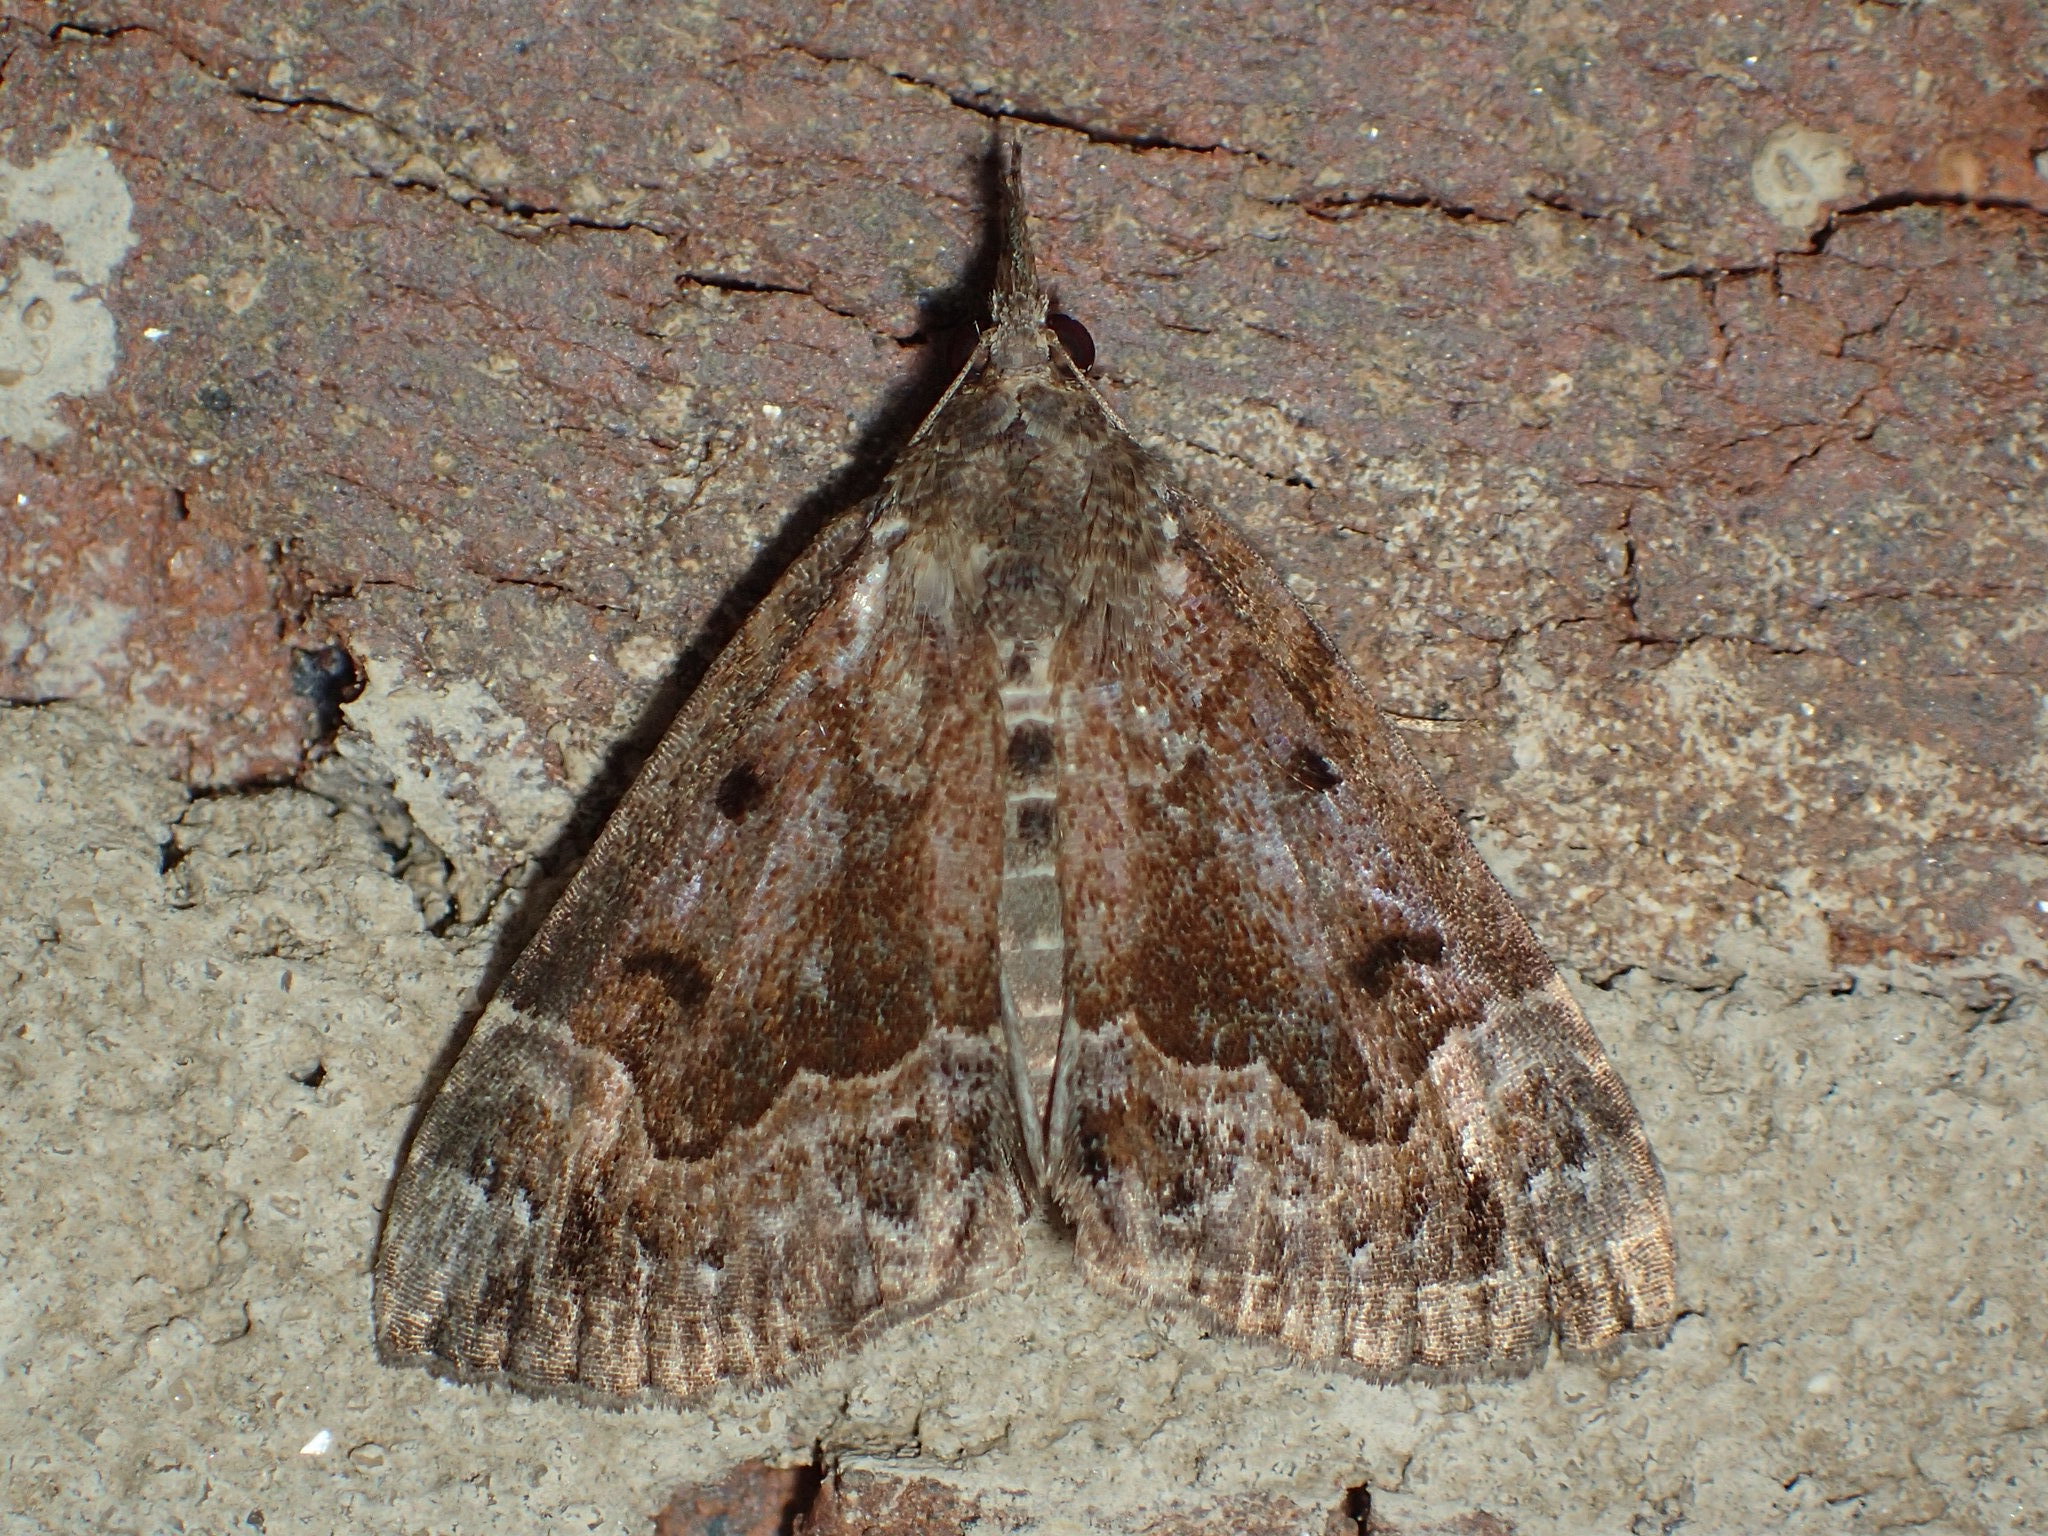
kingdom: Animalia
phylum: Arthropoda
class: Insecta
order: Lepidoptera
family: Erebidae
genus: Hypena
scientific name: Hypena palparia
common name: Mottled bomolocha moth
